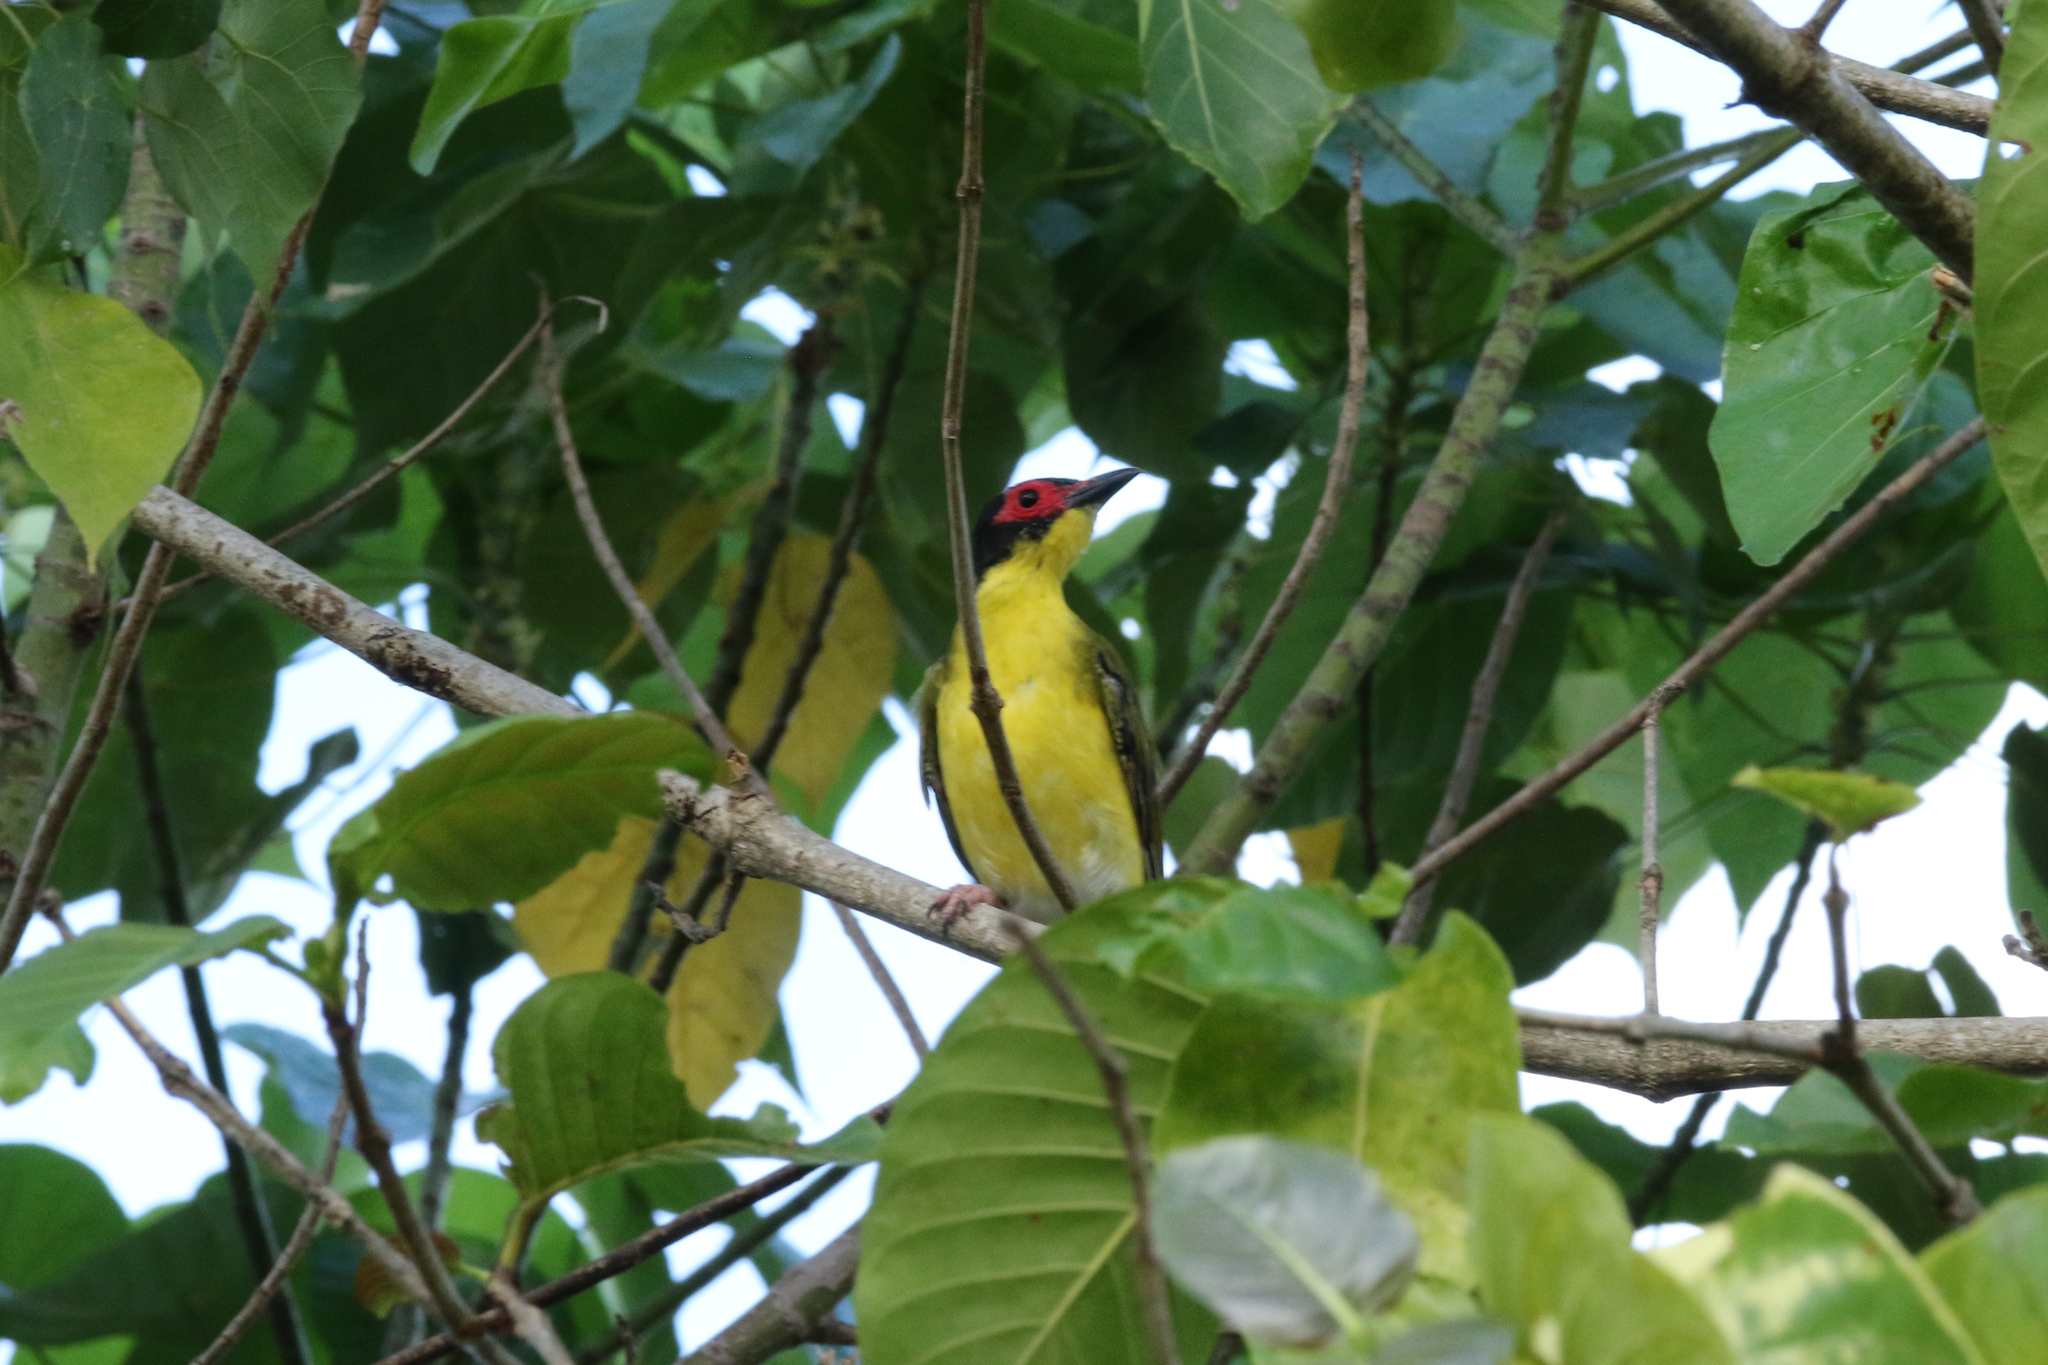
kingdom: Animalia
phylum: Chordata
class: Aves
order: Passeriformes
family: Oriolidae
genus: Sphecotheres
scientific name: Sphecotheres vieilloti
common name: Australasian figbird
